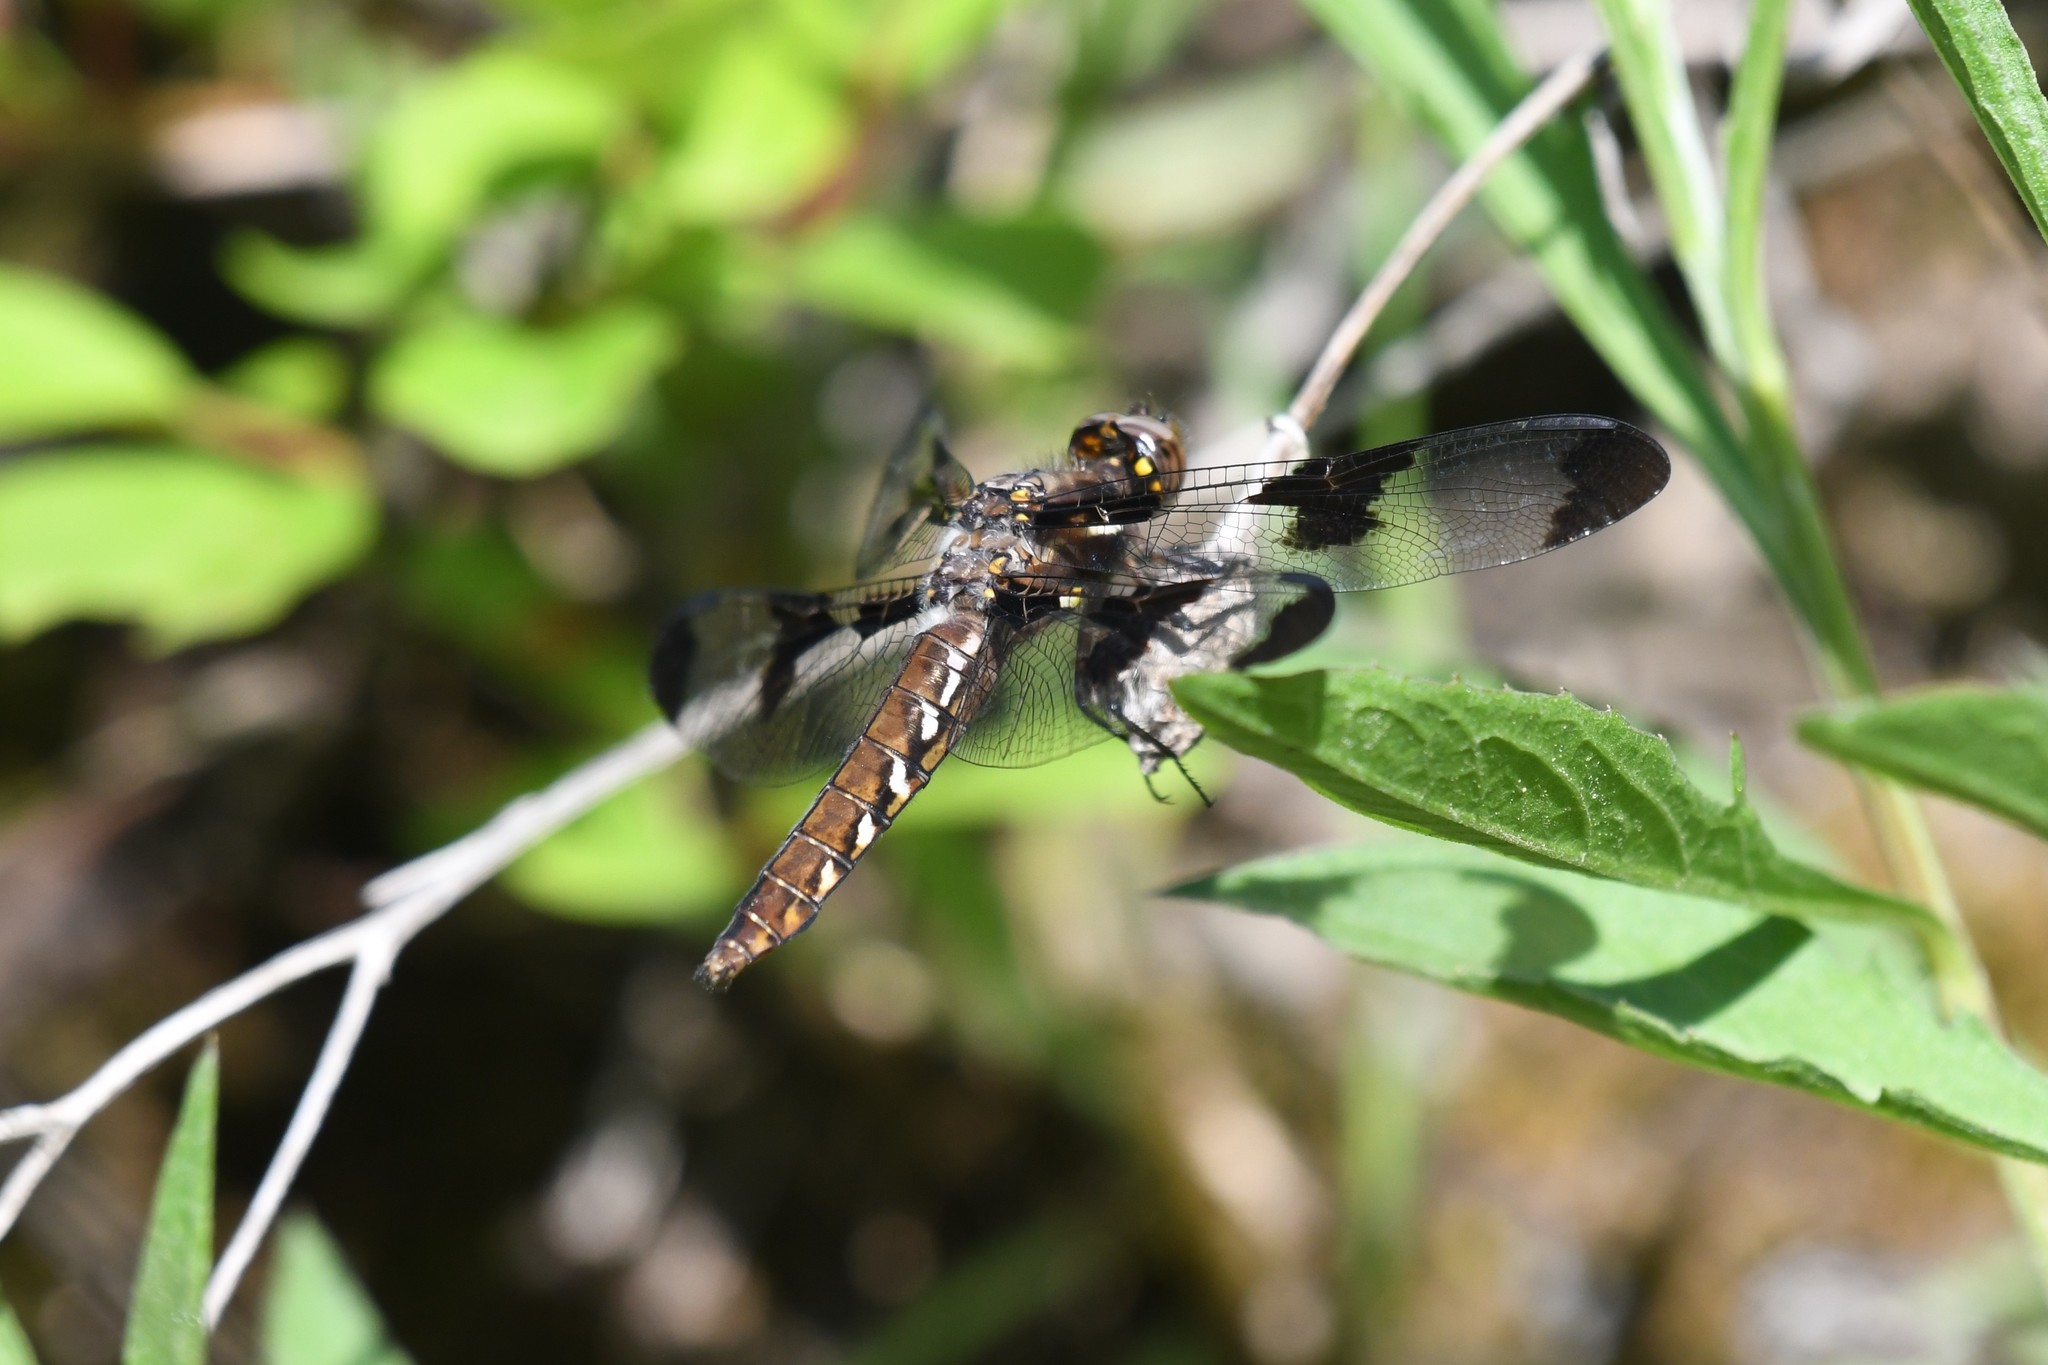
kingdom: Animalia
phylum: Arthropoda
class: Insecta
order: Odonata
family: Libellulidae
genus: Plathemis
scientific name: Plathemis lydia
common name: Common whitetail
